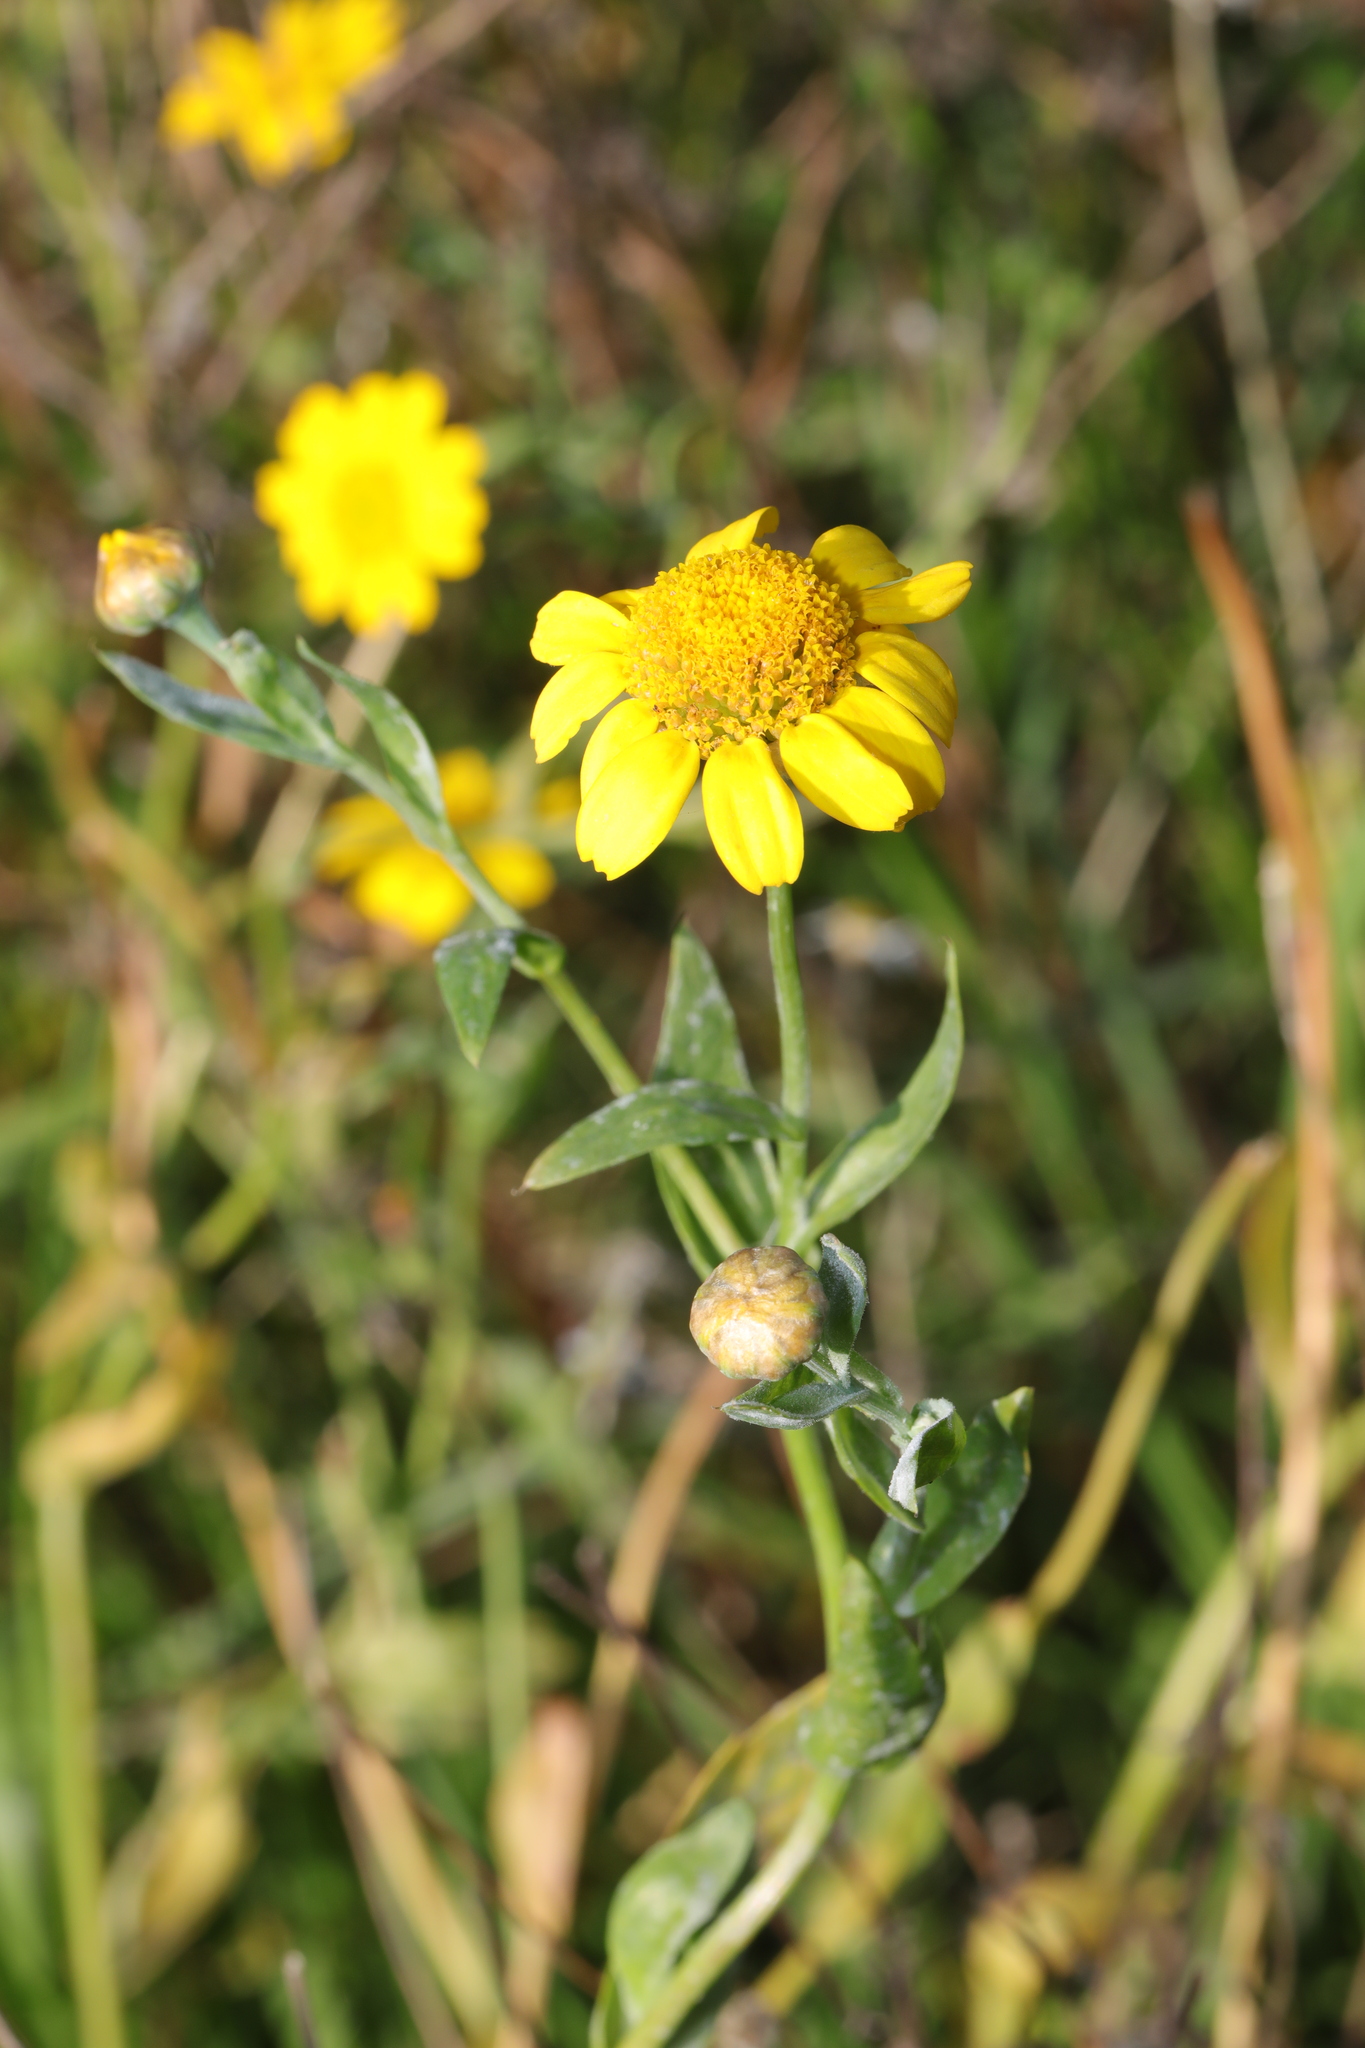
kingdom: Plantae
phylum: Tracheophyta
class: Magnoliopsida
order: Asterales
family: Asteraceae
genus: Glebionis
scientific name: Glebionis segetum
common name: Corndaisy
